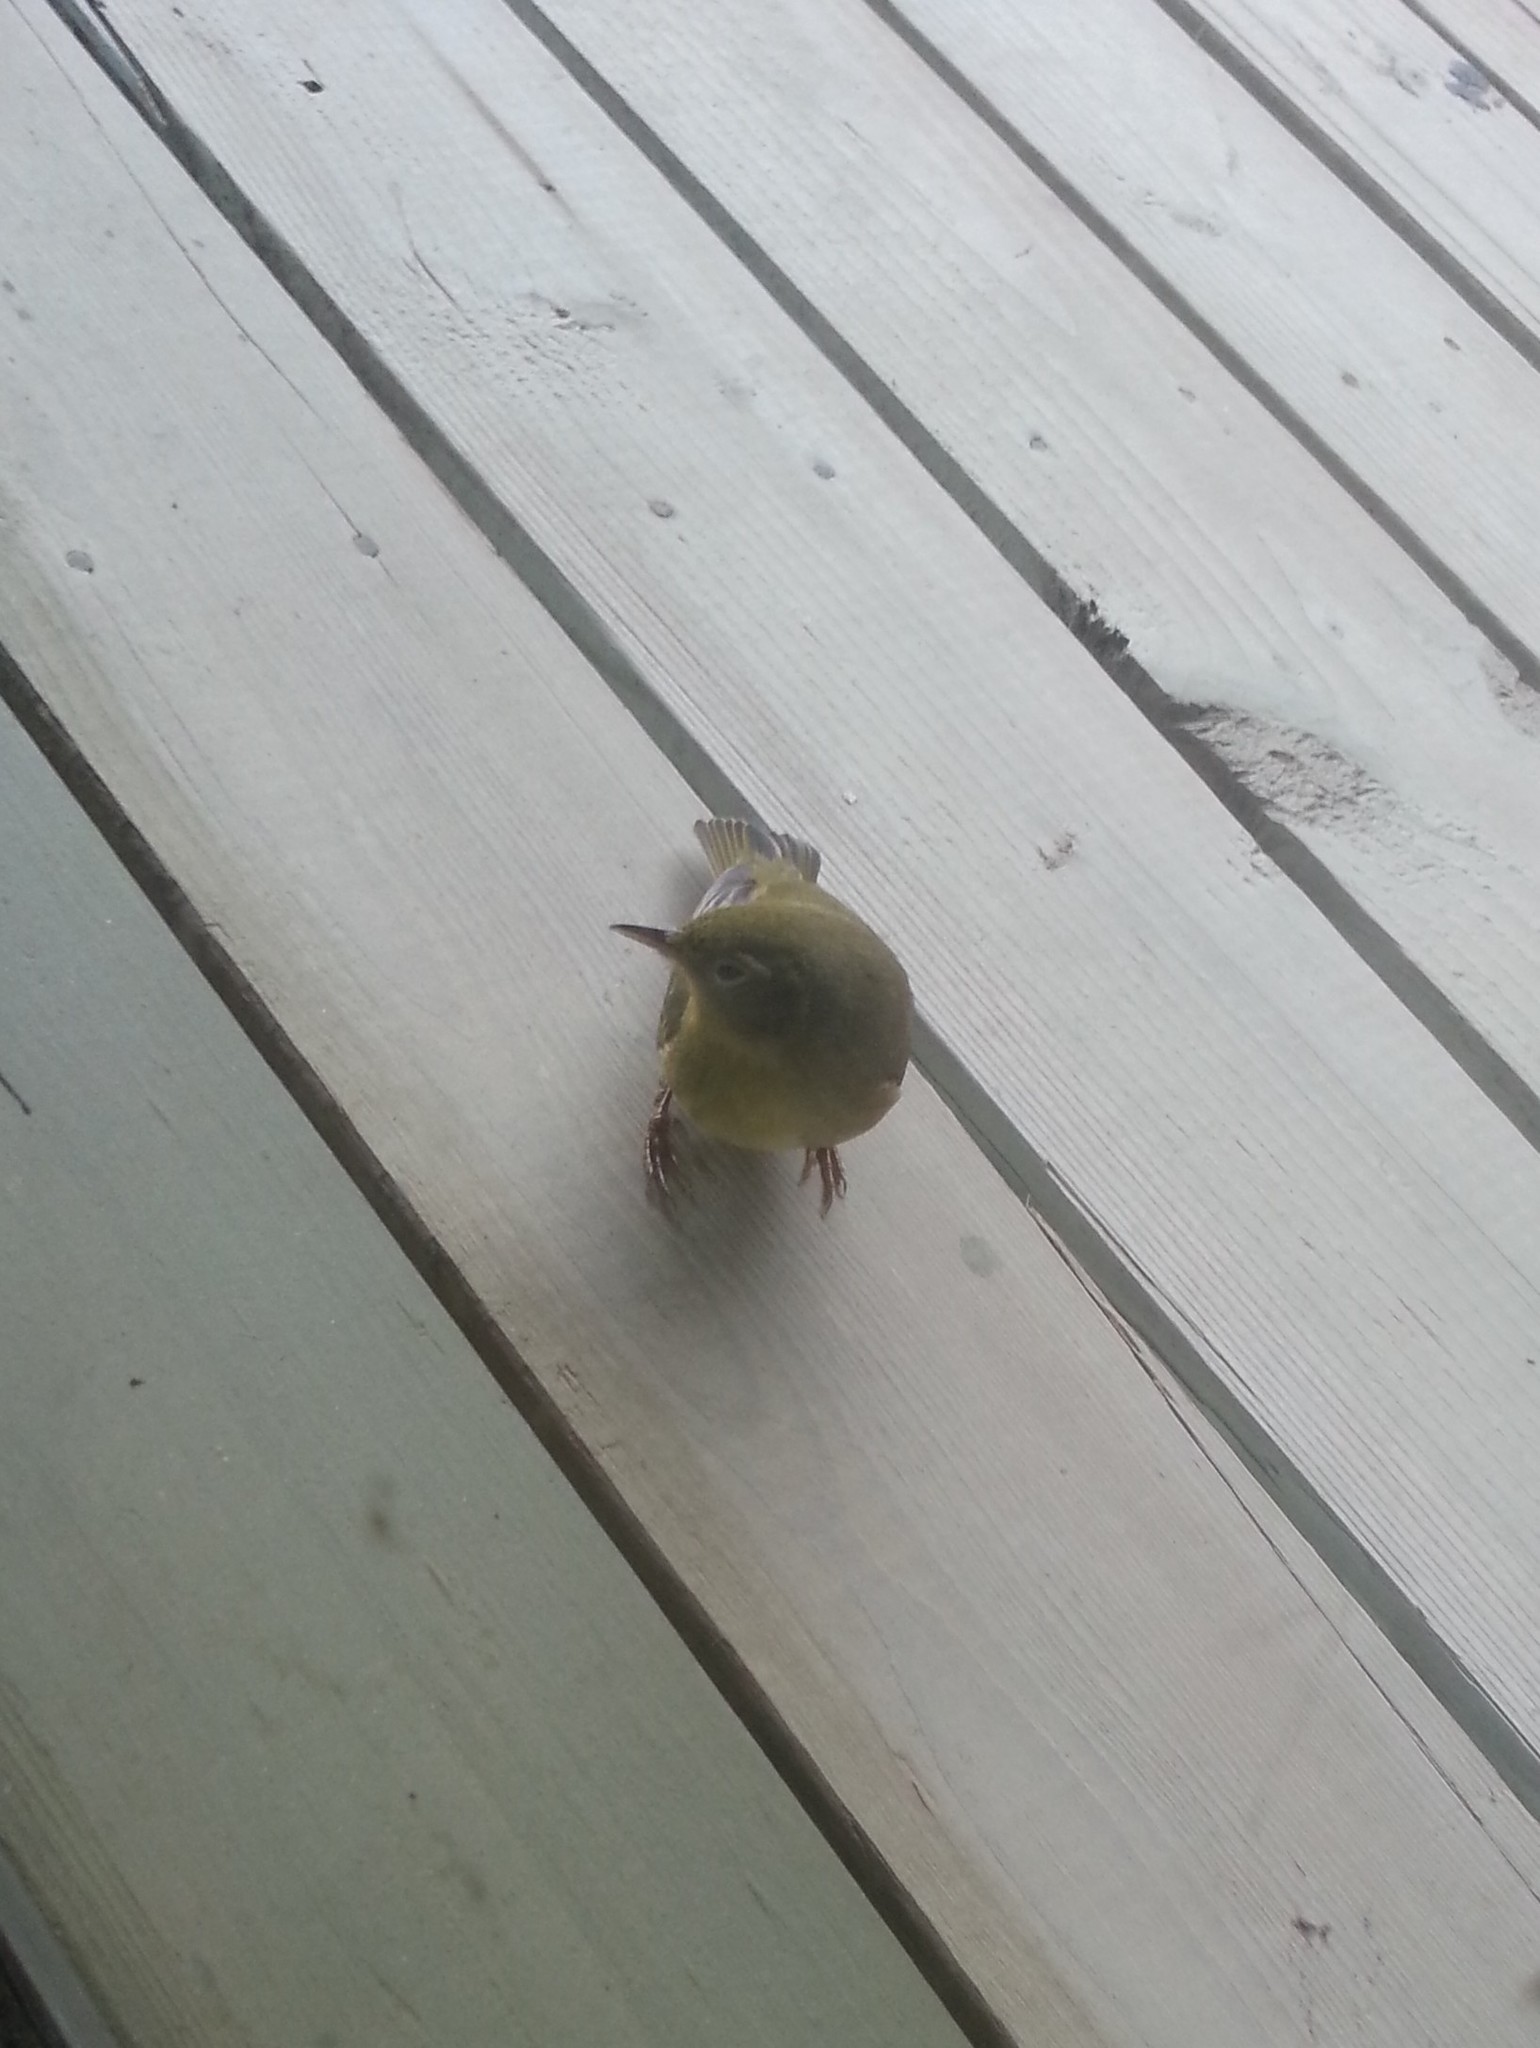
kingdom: Animalia
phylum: Chordata
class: Aves
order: Passeriformes
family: Parulidae
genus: Geothlypis
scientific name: Geothlypis trichas
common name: Common yellowthroat
